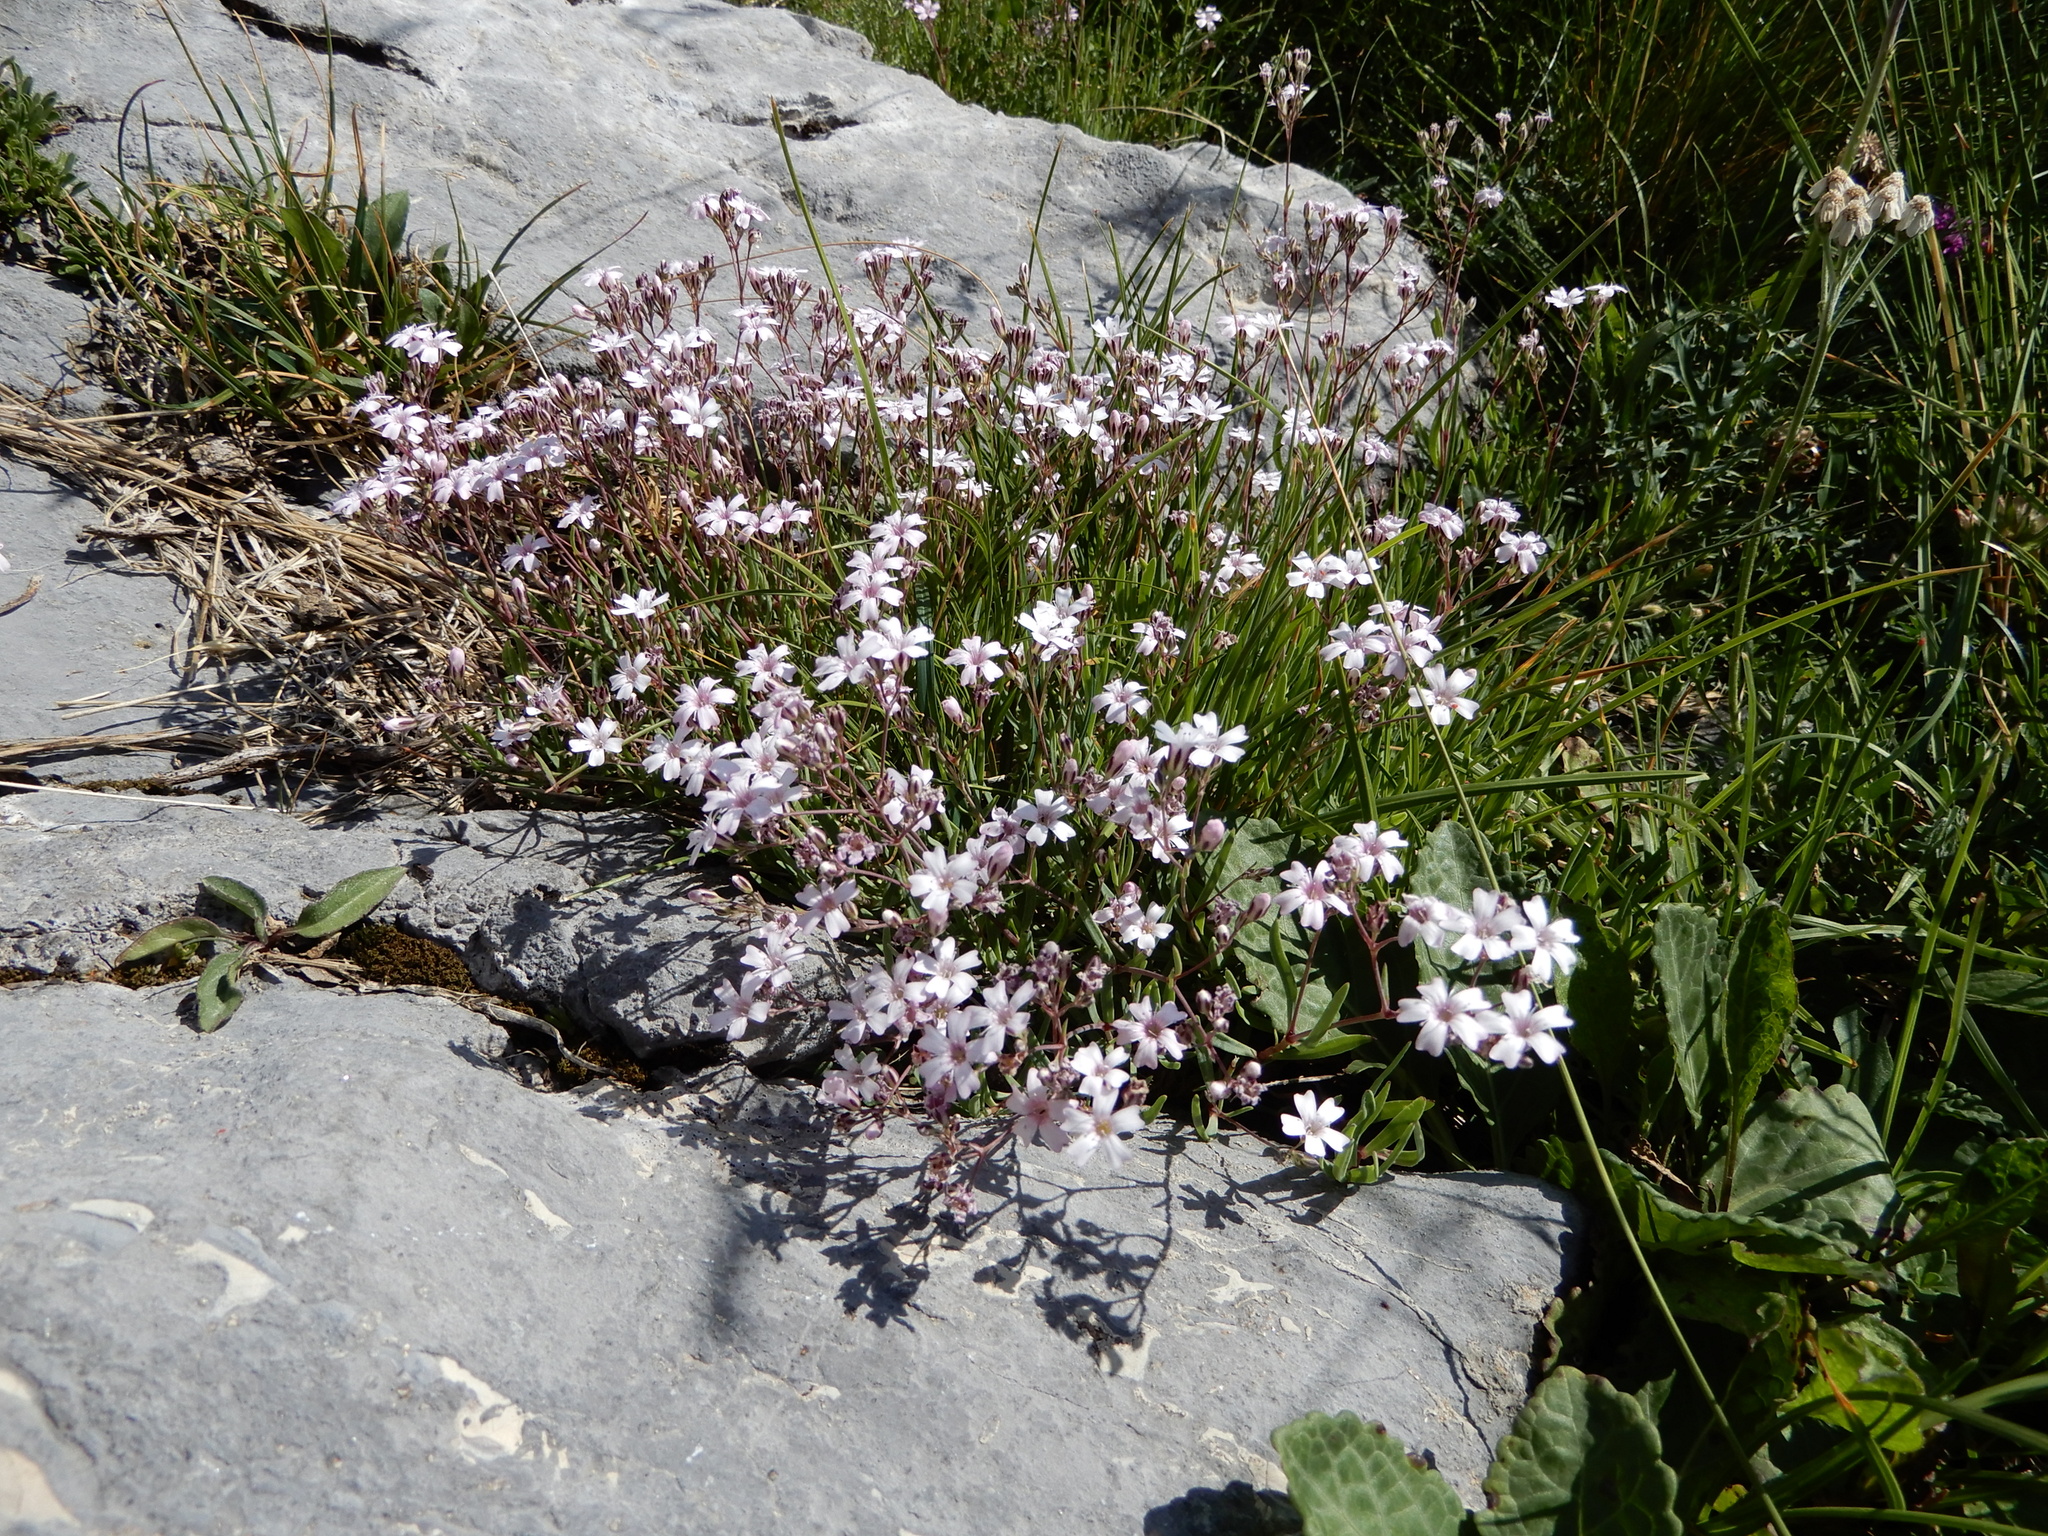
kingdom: Plantae
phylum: Tracheophyta
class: Magnoliopsida
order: Caryophyllales
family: Caryophyllaceae
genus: Gypsophila
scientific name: Gypsophila repens
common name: Creeping baby's-breath
